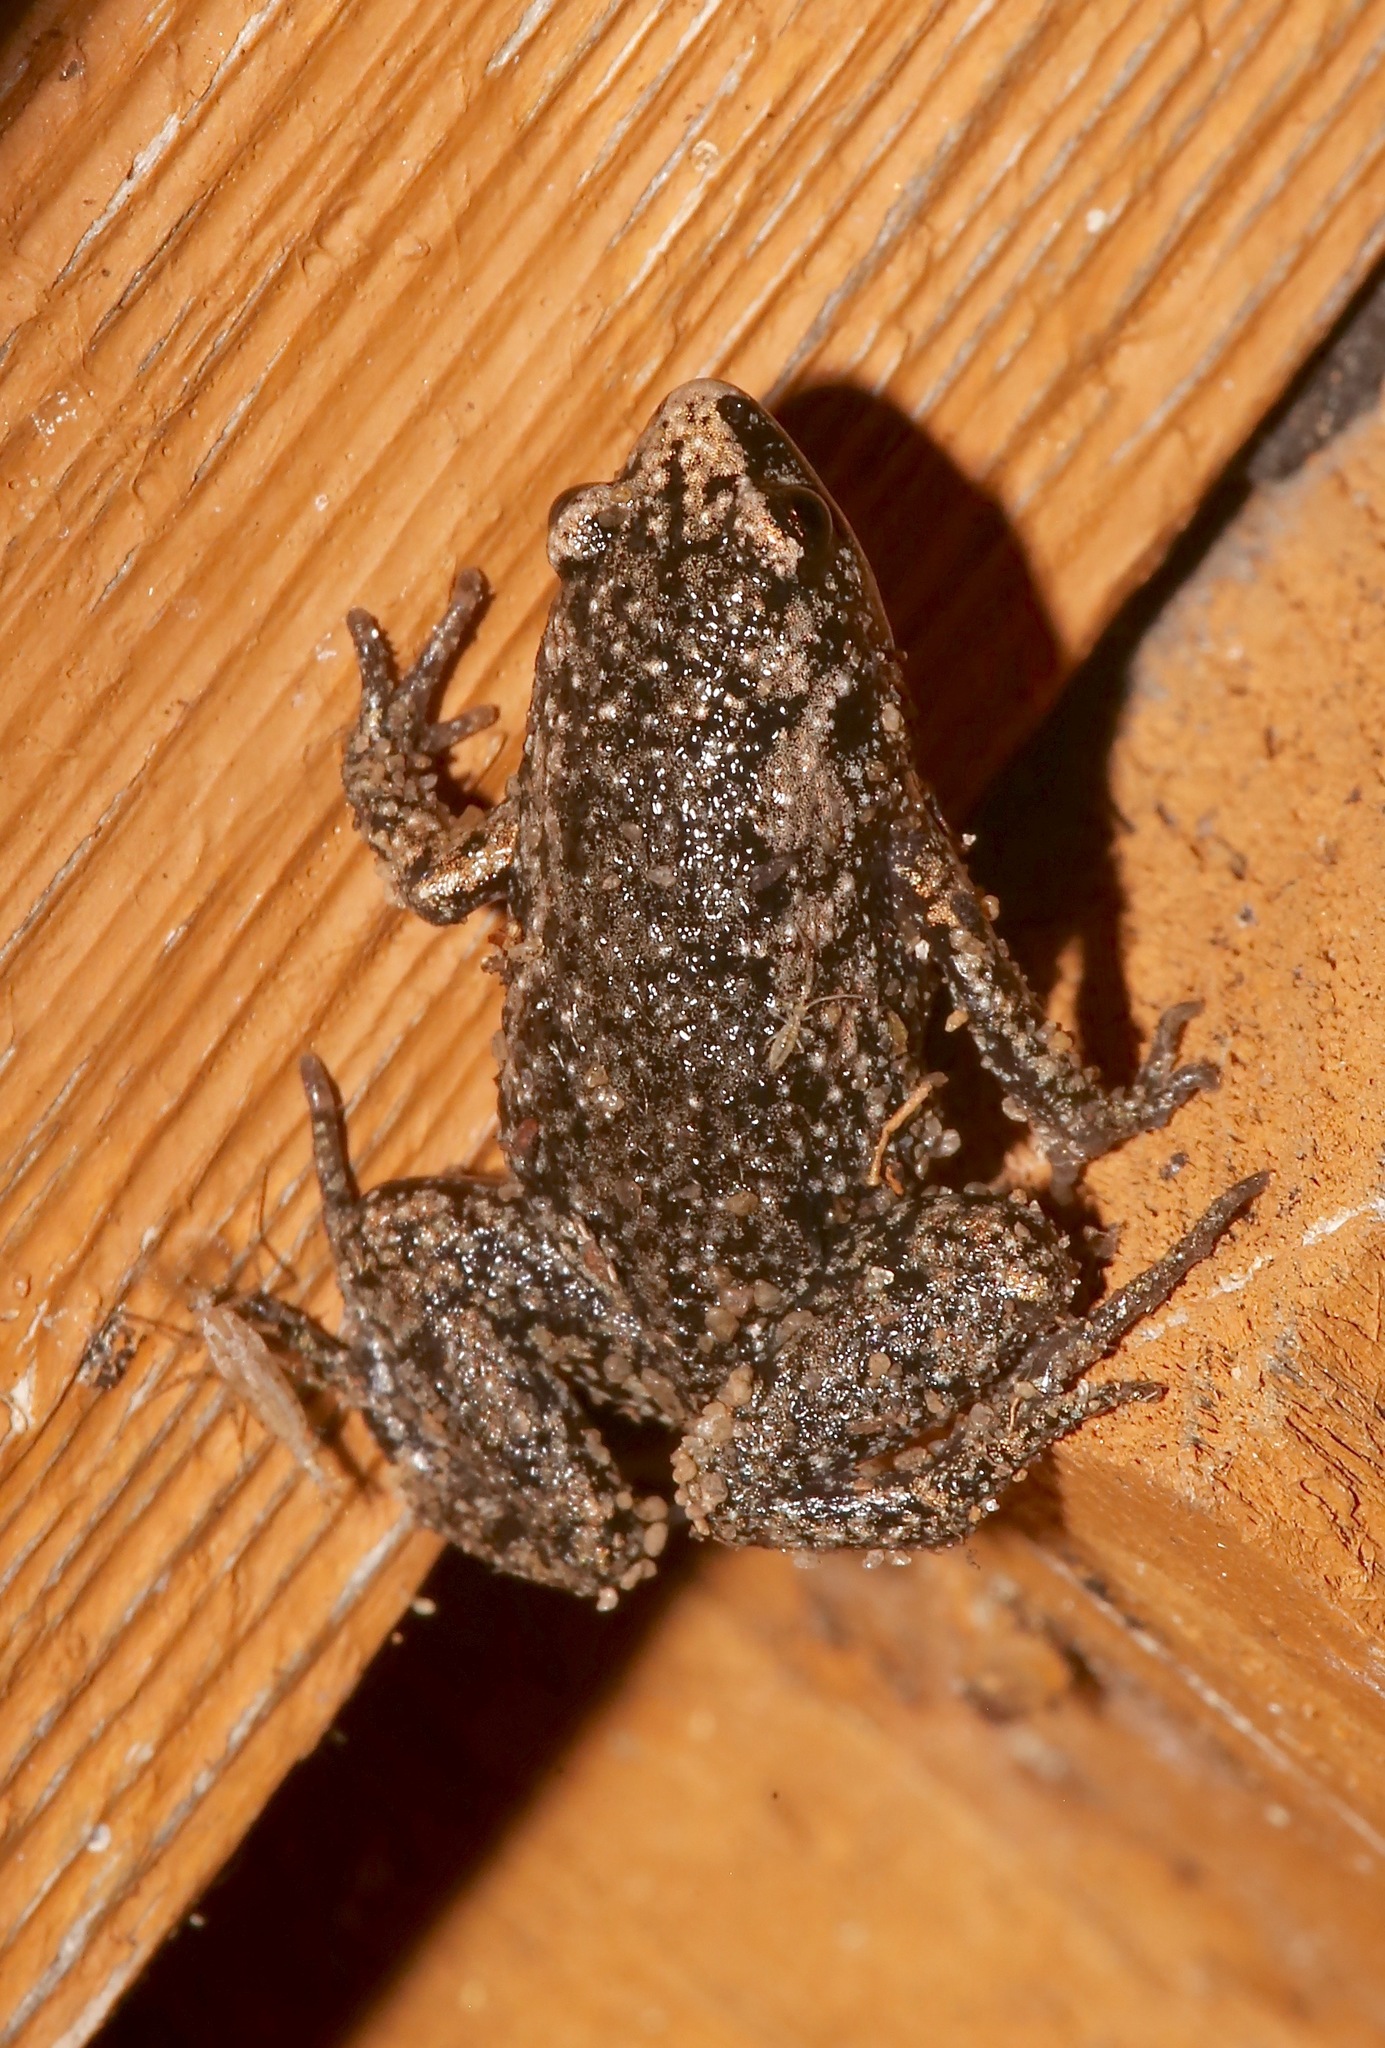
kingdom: Animalia
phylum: Chordata
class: Amphibia
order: Anura
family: Microhylidae
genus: Gastrophryne
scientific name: Gastrophryne carolinensis
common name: Eastern narrowmouth toad
